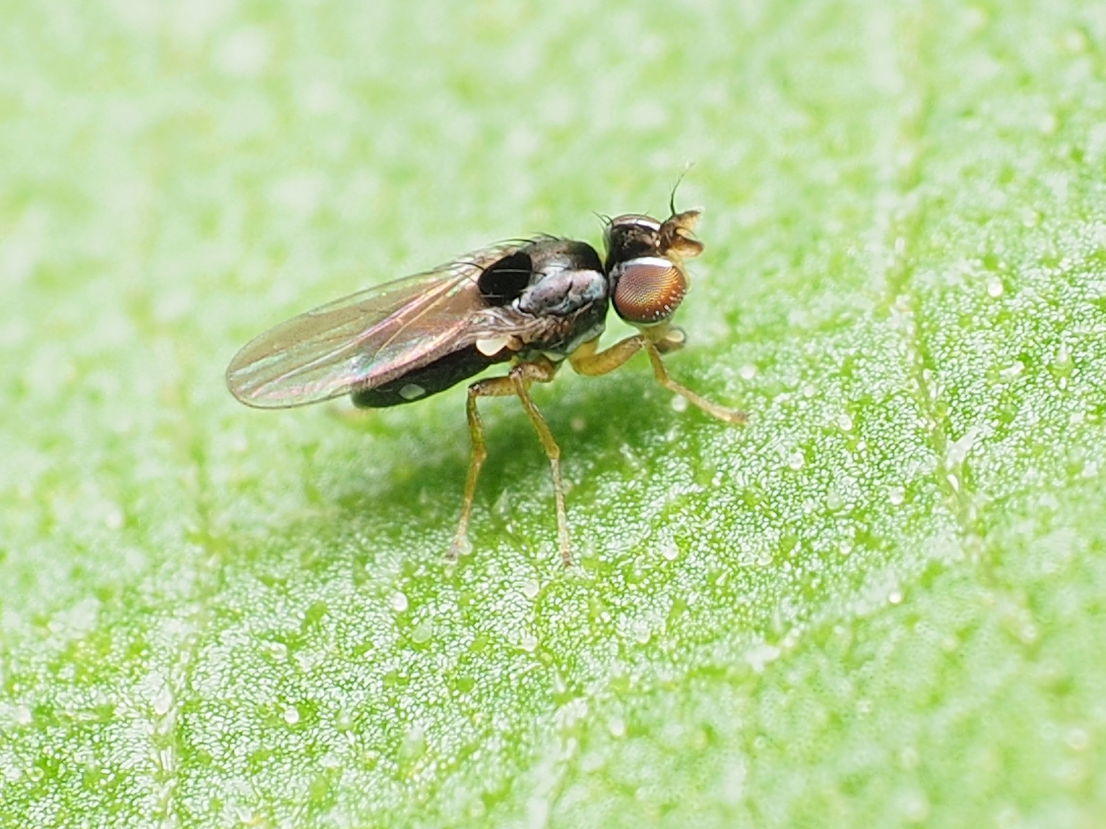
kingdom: Animalia
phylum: Arthropoda
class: Insecta
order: Diptera
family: Ephydridae
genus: Nostima
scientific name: Nostima picta
